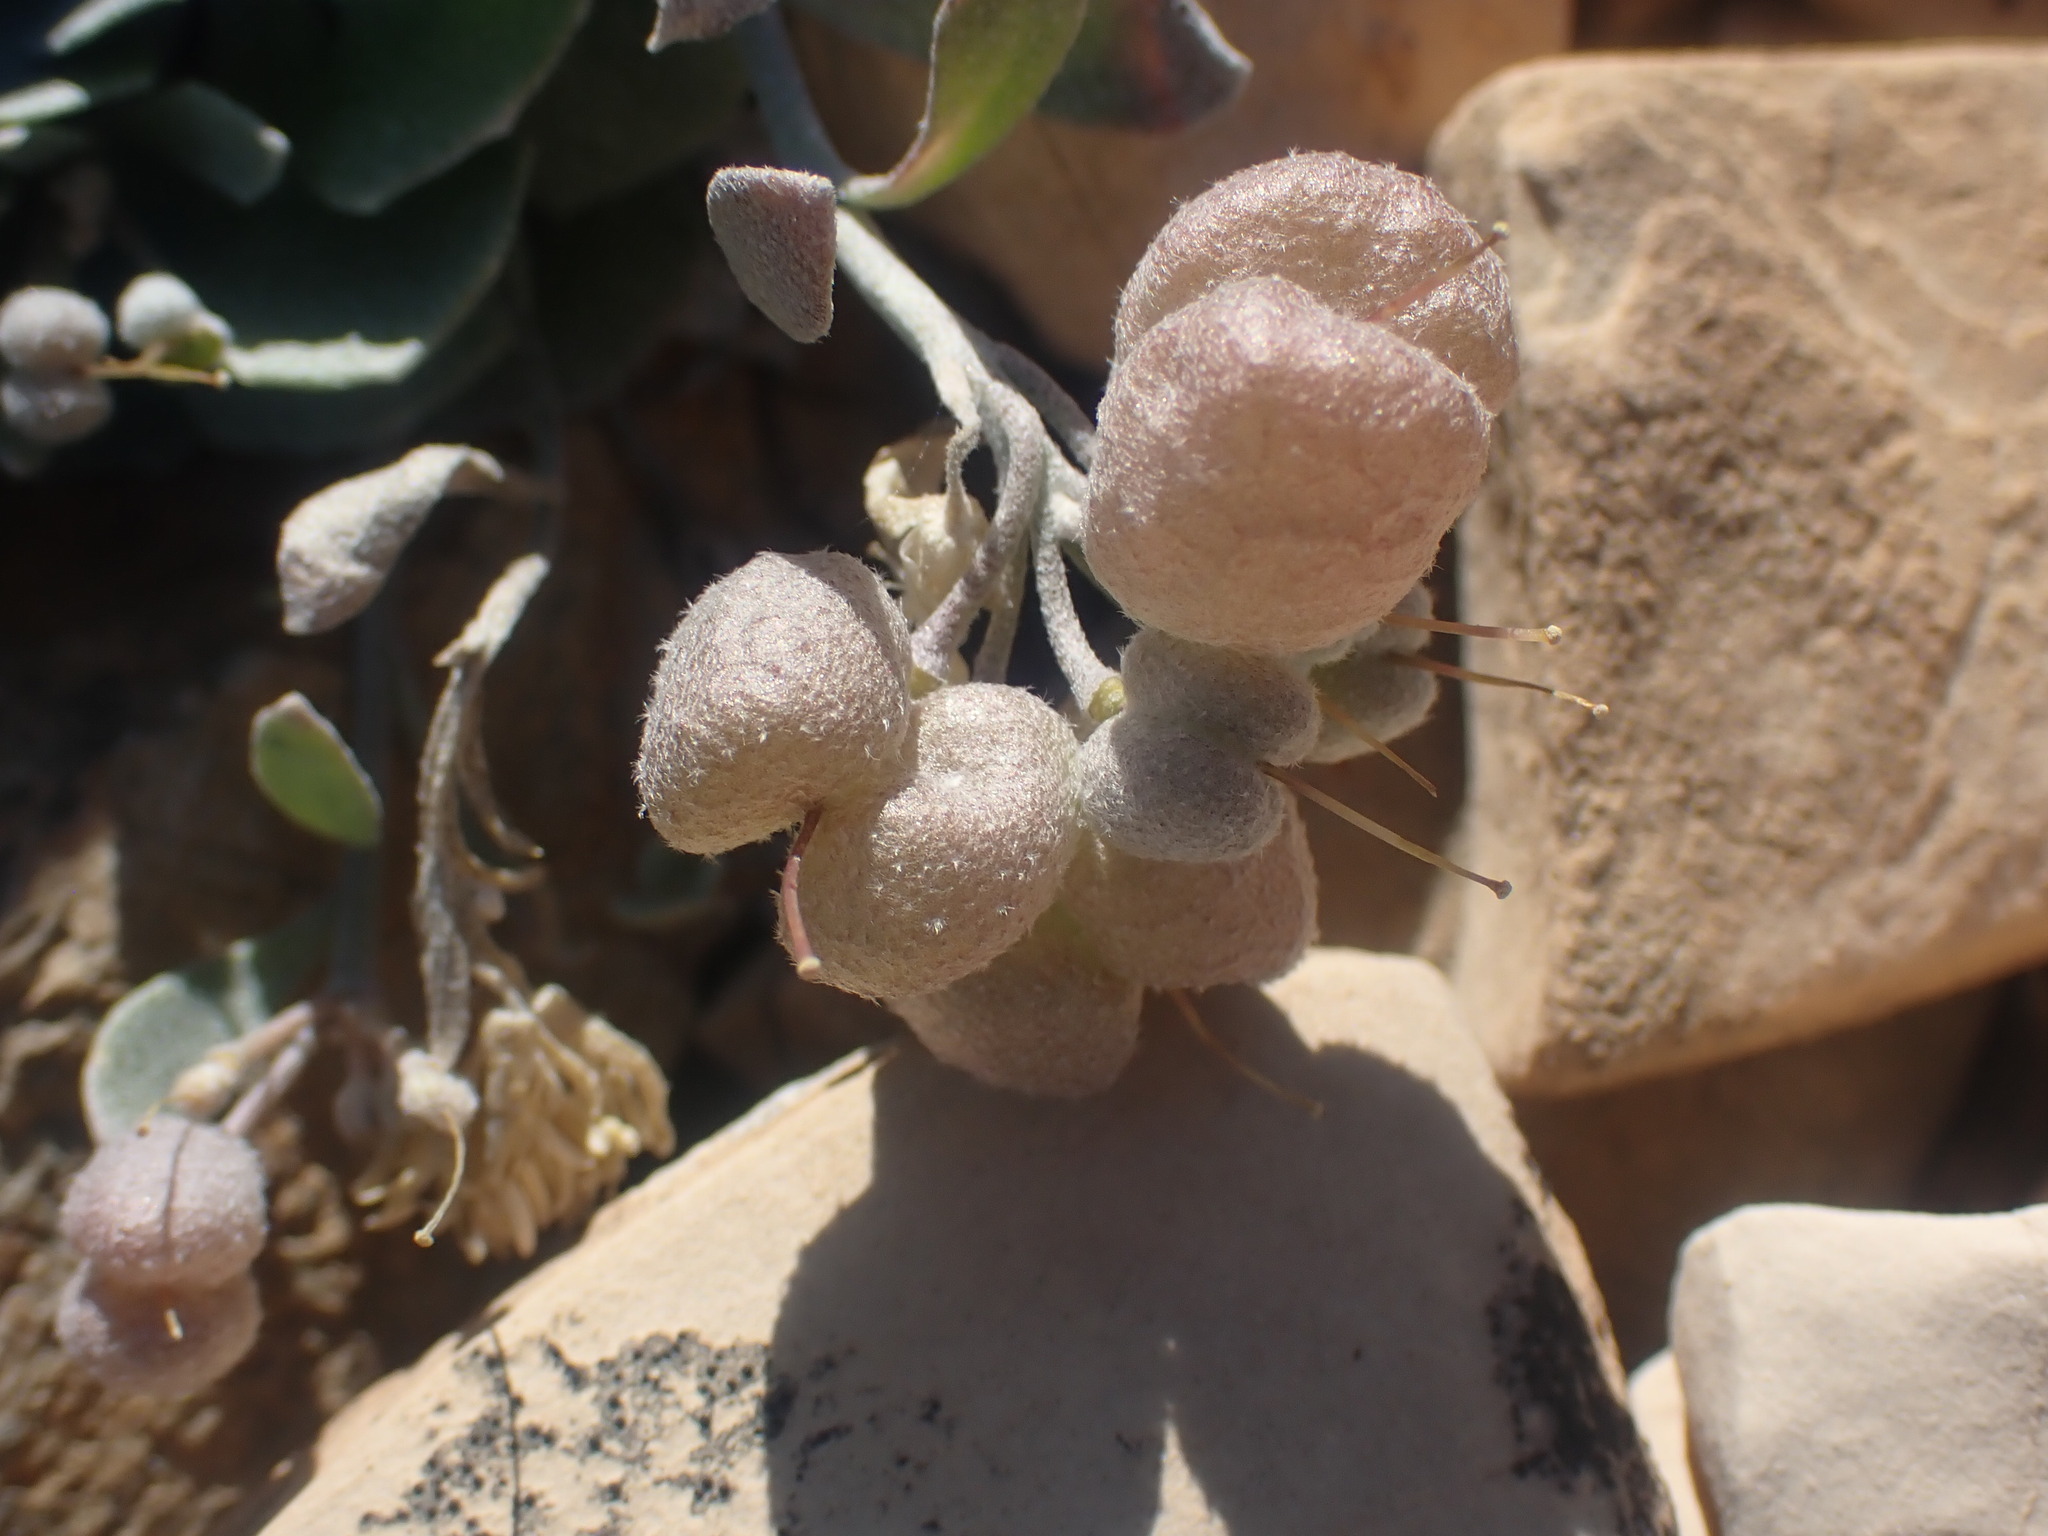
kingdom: Plantae
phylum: Tracheophyta
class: Magnoliopsida
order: Brassicales
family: Brassicaceae
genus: Physaria
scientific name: Physaria didymocarpa
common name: Common twinpod
